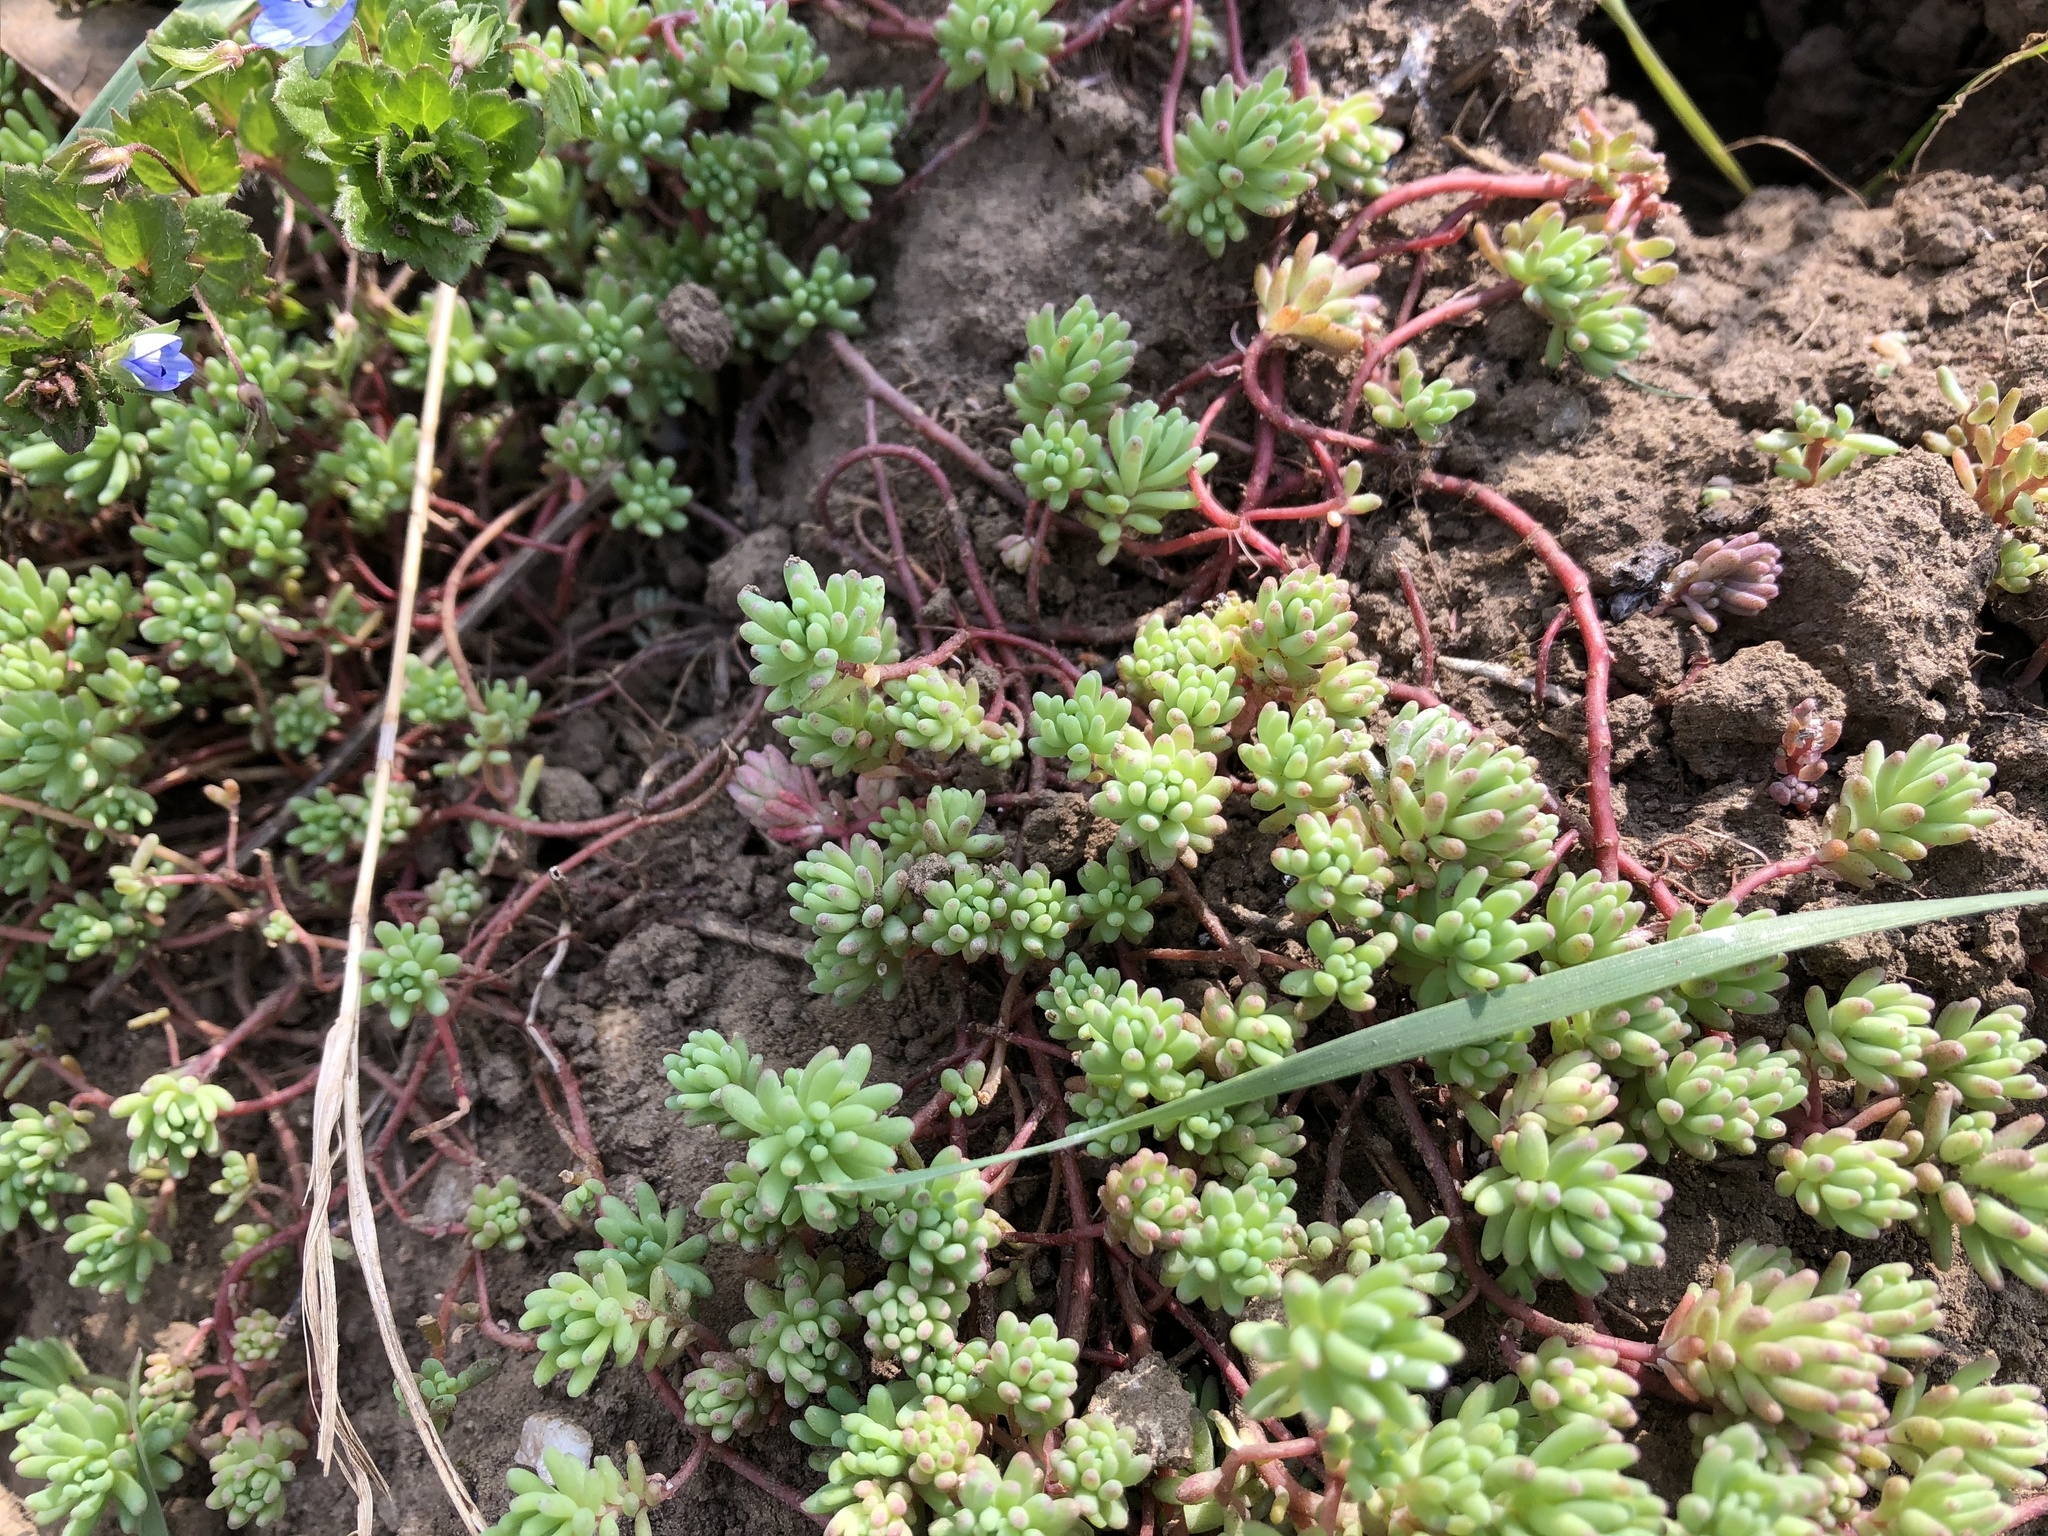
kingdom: Plantae
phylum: Tracheophyta
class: Magnoliopsida
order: Saxifragales
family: Crassulaceae
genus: Sedum
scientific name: Sedum pallidum
